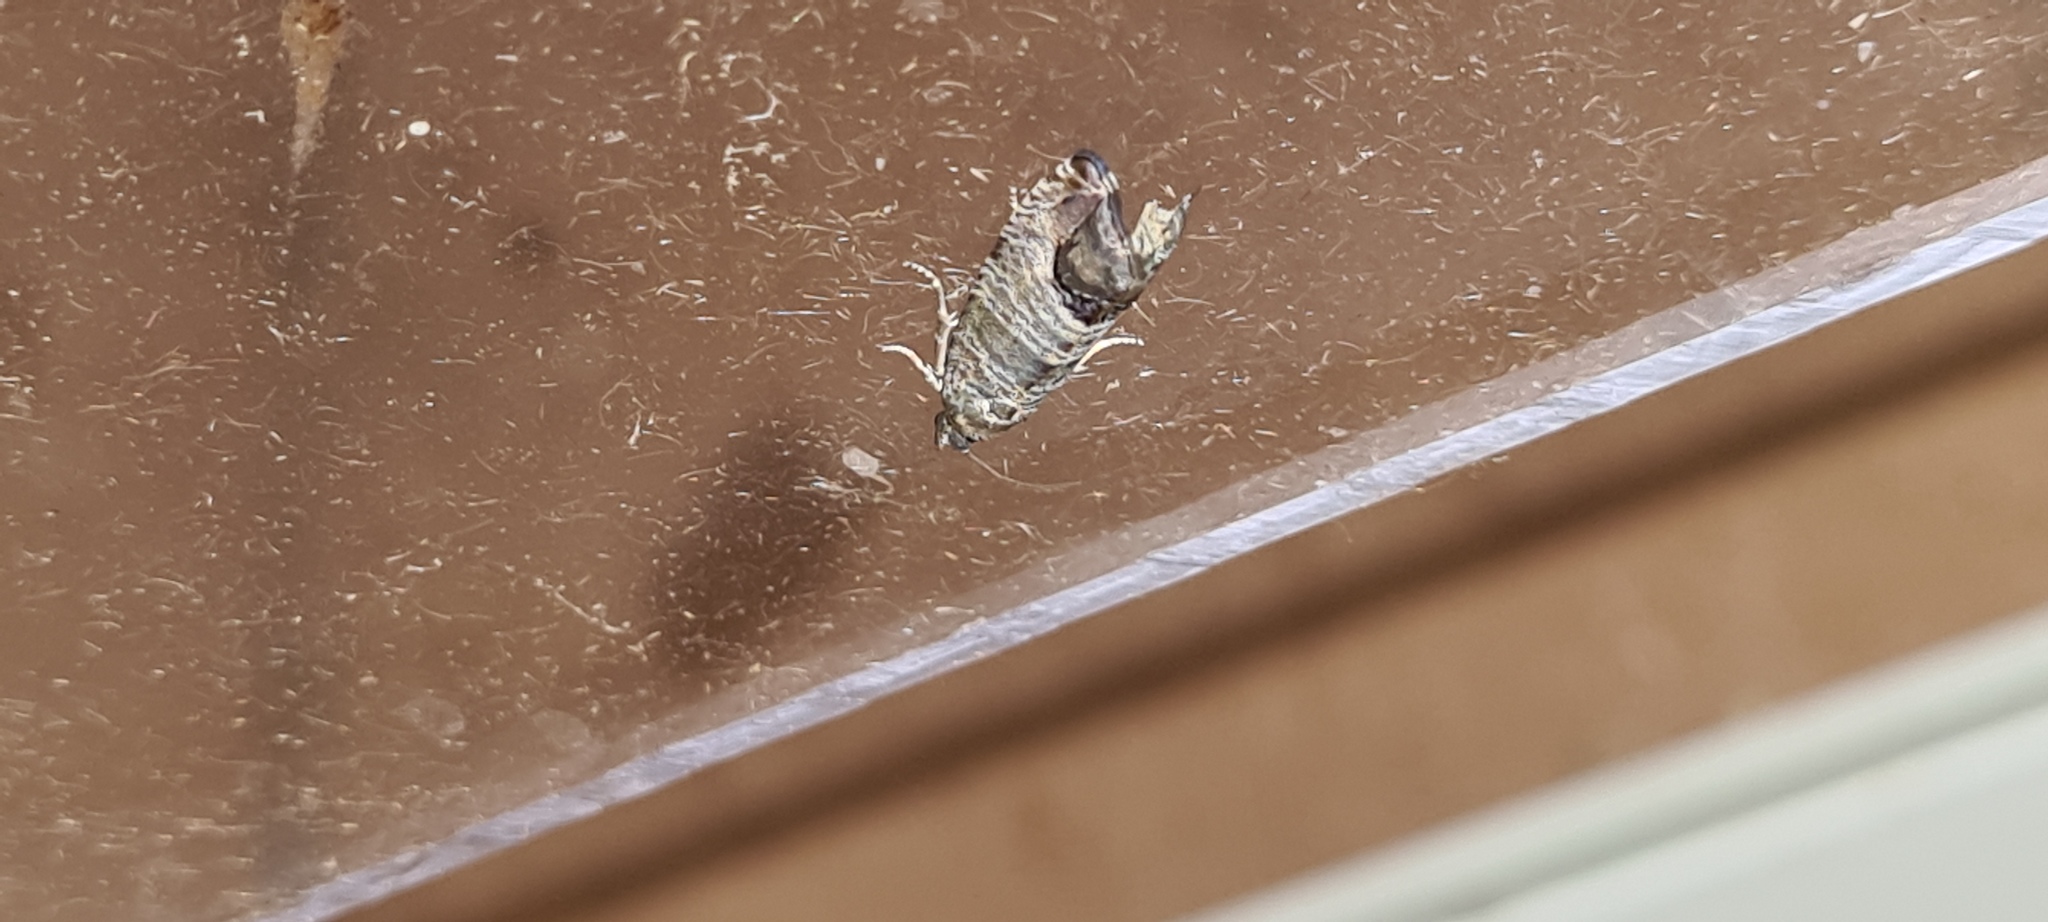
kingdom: Animalia
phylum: Arthropoda
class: Insecta
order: Lepidoptera
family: Tortricidae
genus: Cydia
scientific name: Cydia pomonella
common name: Codling moth
